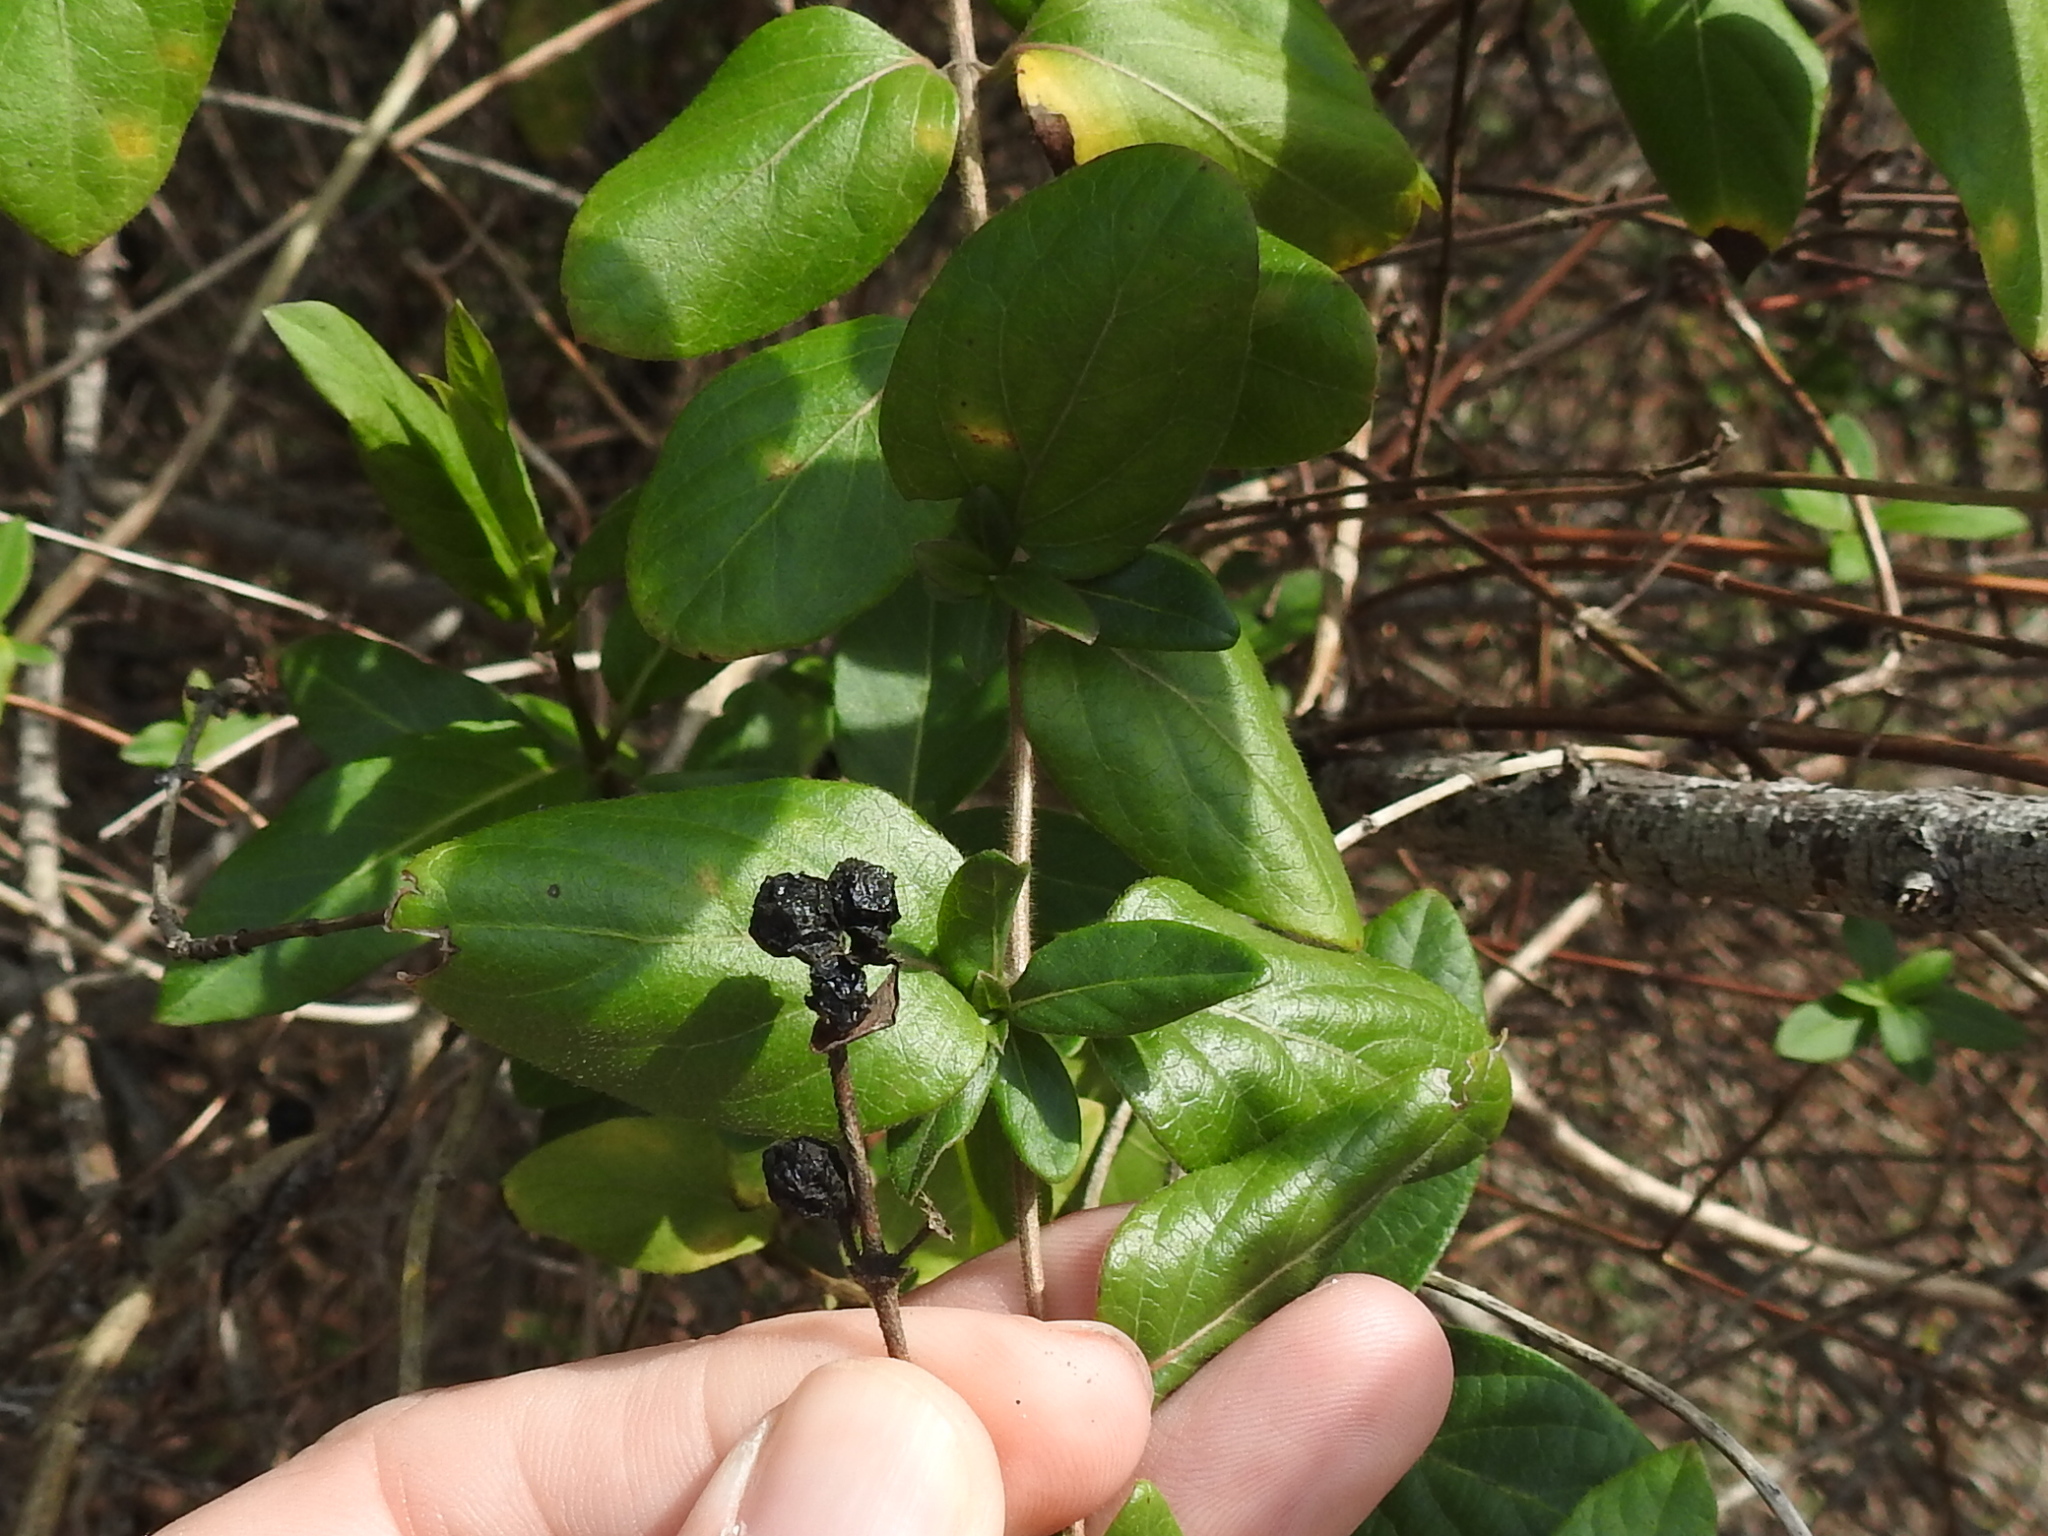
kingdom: Plantae
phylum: Tracheophyta
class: Magnoliopsida
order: Dipsacales
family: Caprifoliaceae
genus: Lonicera
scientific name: Lonicera japonica
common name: Japanese honeysuckle
